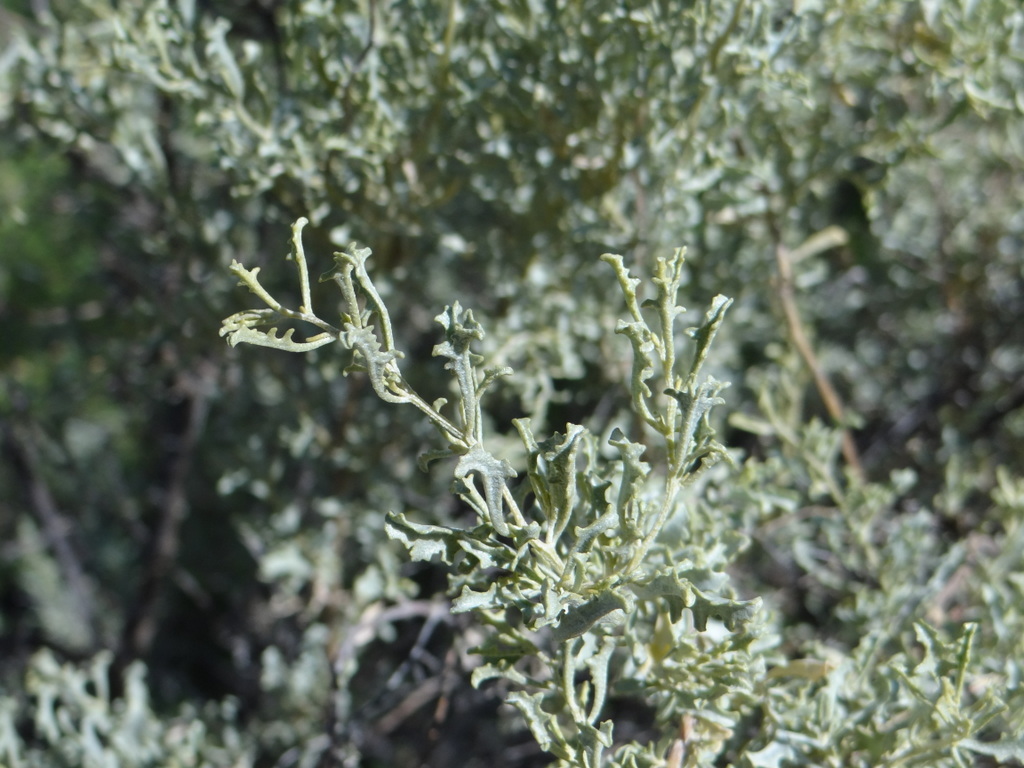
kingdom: Plantae
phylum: Tracheophyta
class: Magnoliopsida
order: Caryophyllales
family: Amaranthaceae
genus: Atriplex
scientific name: Atriplex lampa
